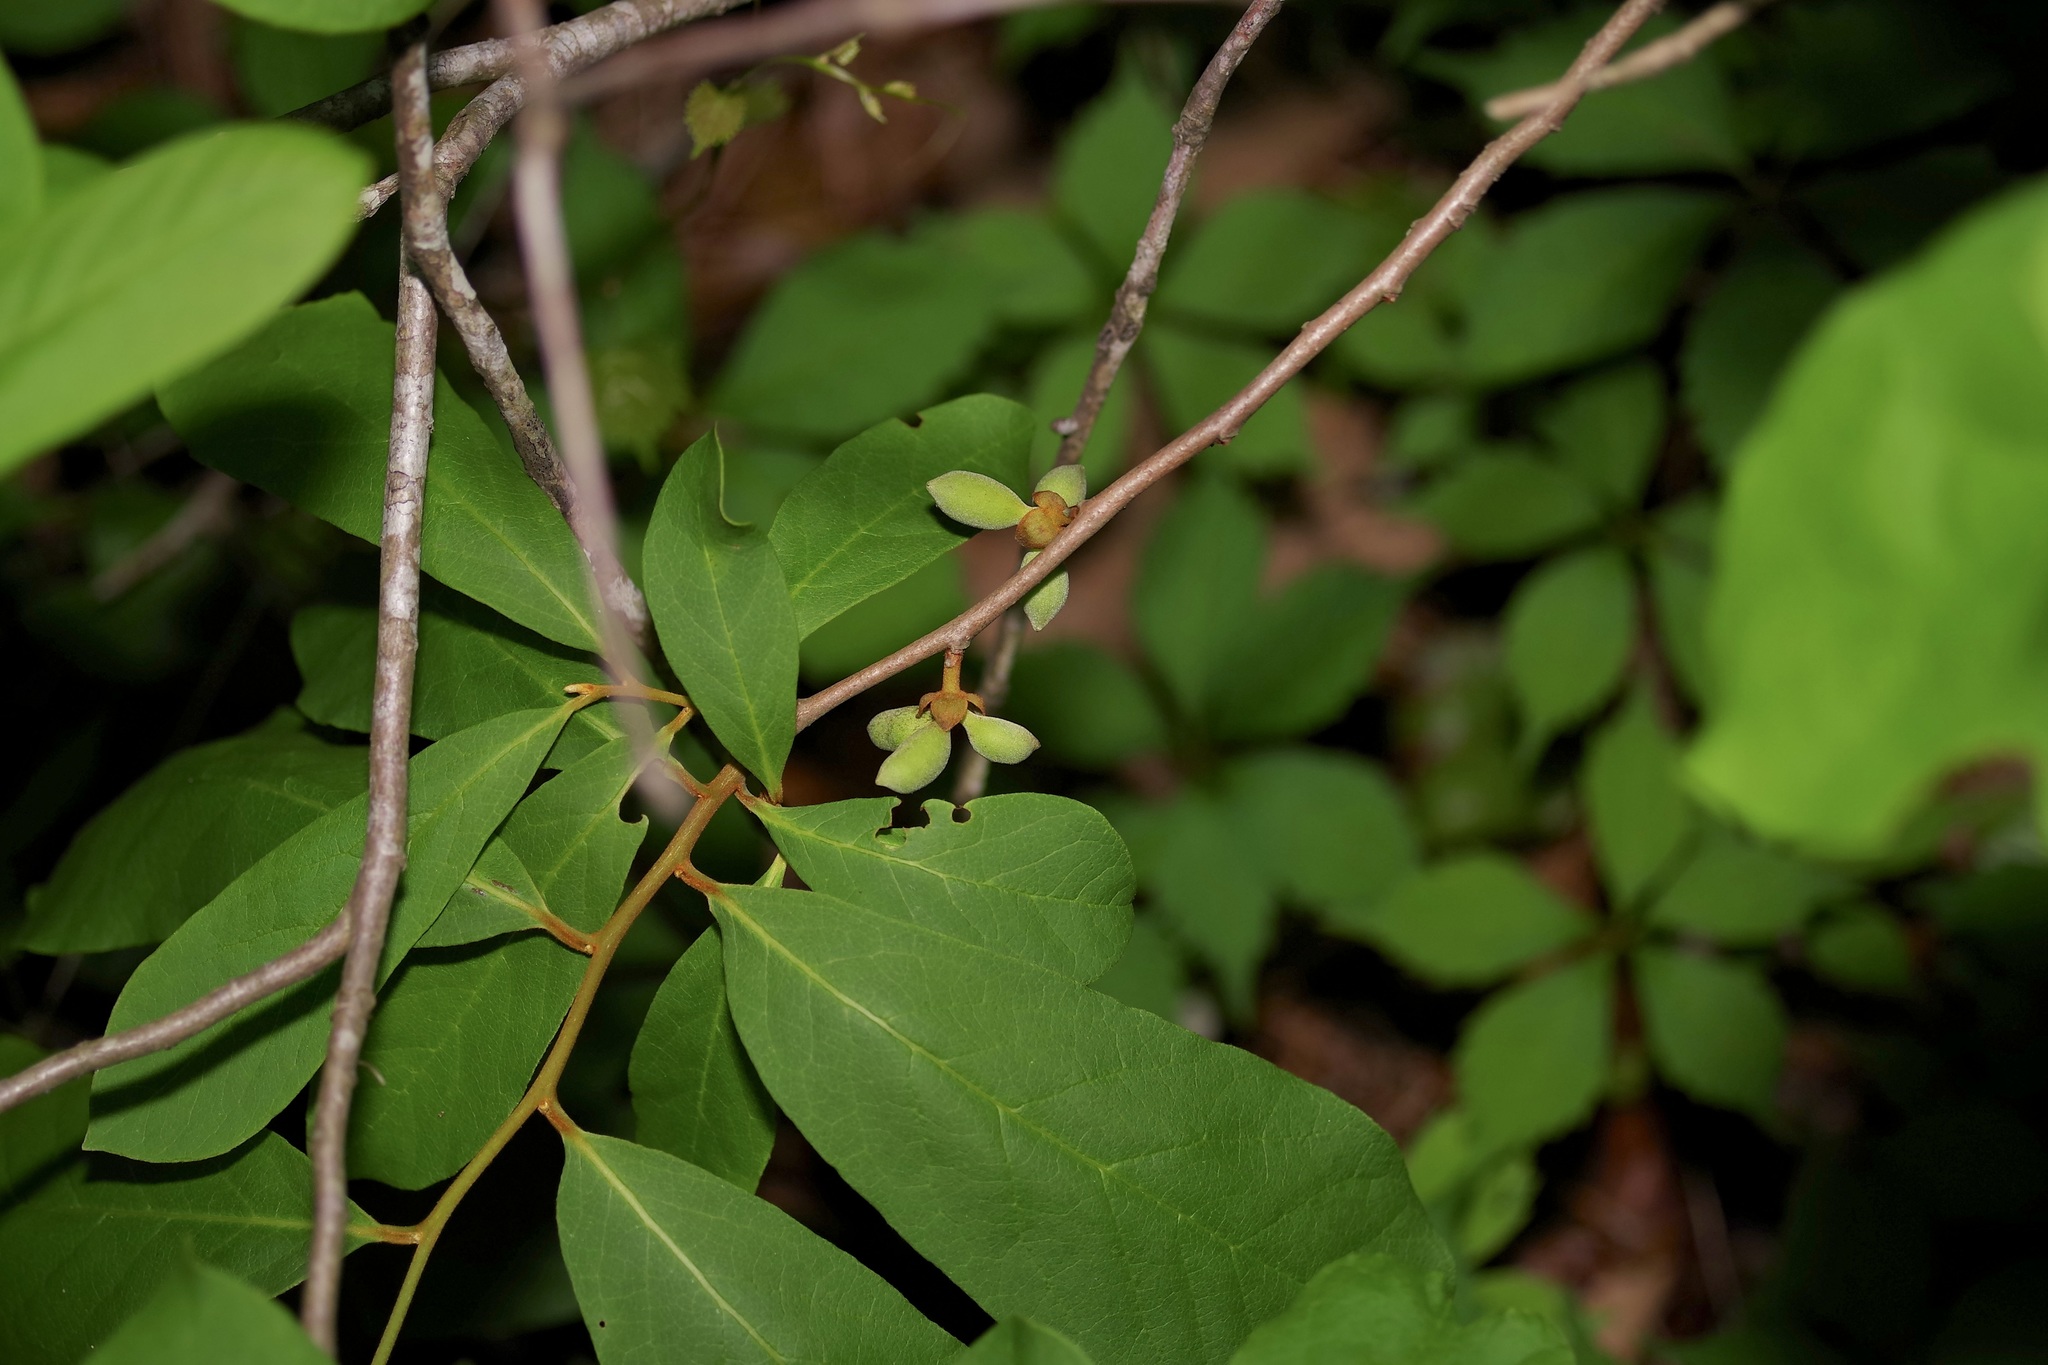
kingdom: Plantae
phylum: Tracheophyta
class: Magnoliopsida
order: Magnoliales
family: Annonaceae
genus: Asimina
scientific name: Asimina parviflora
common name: Dwarf pawpaw
